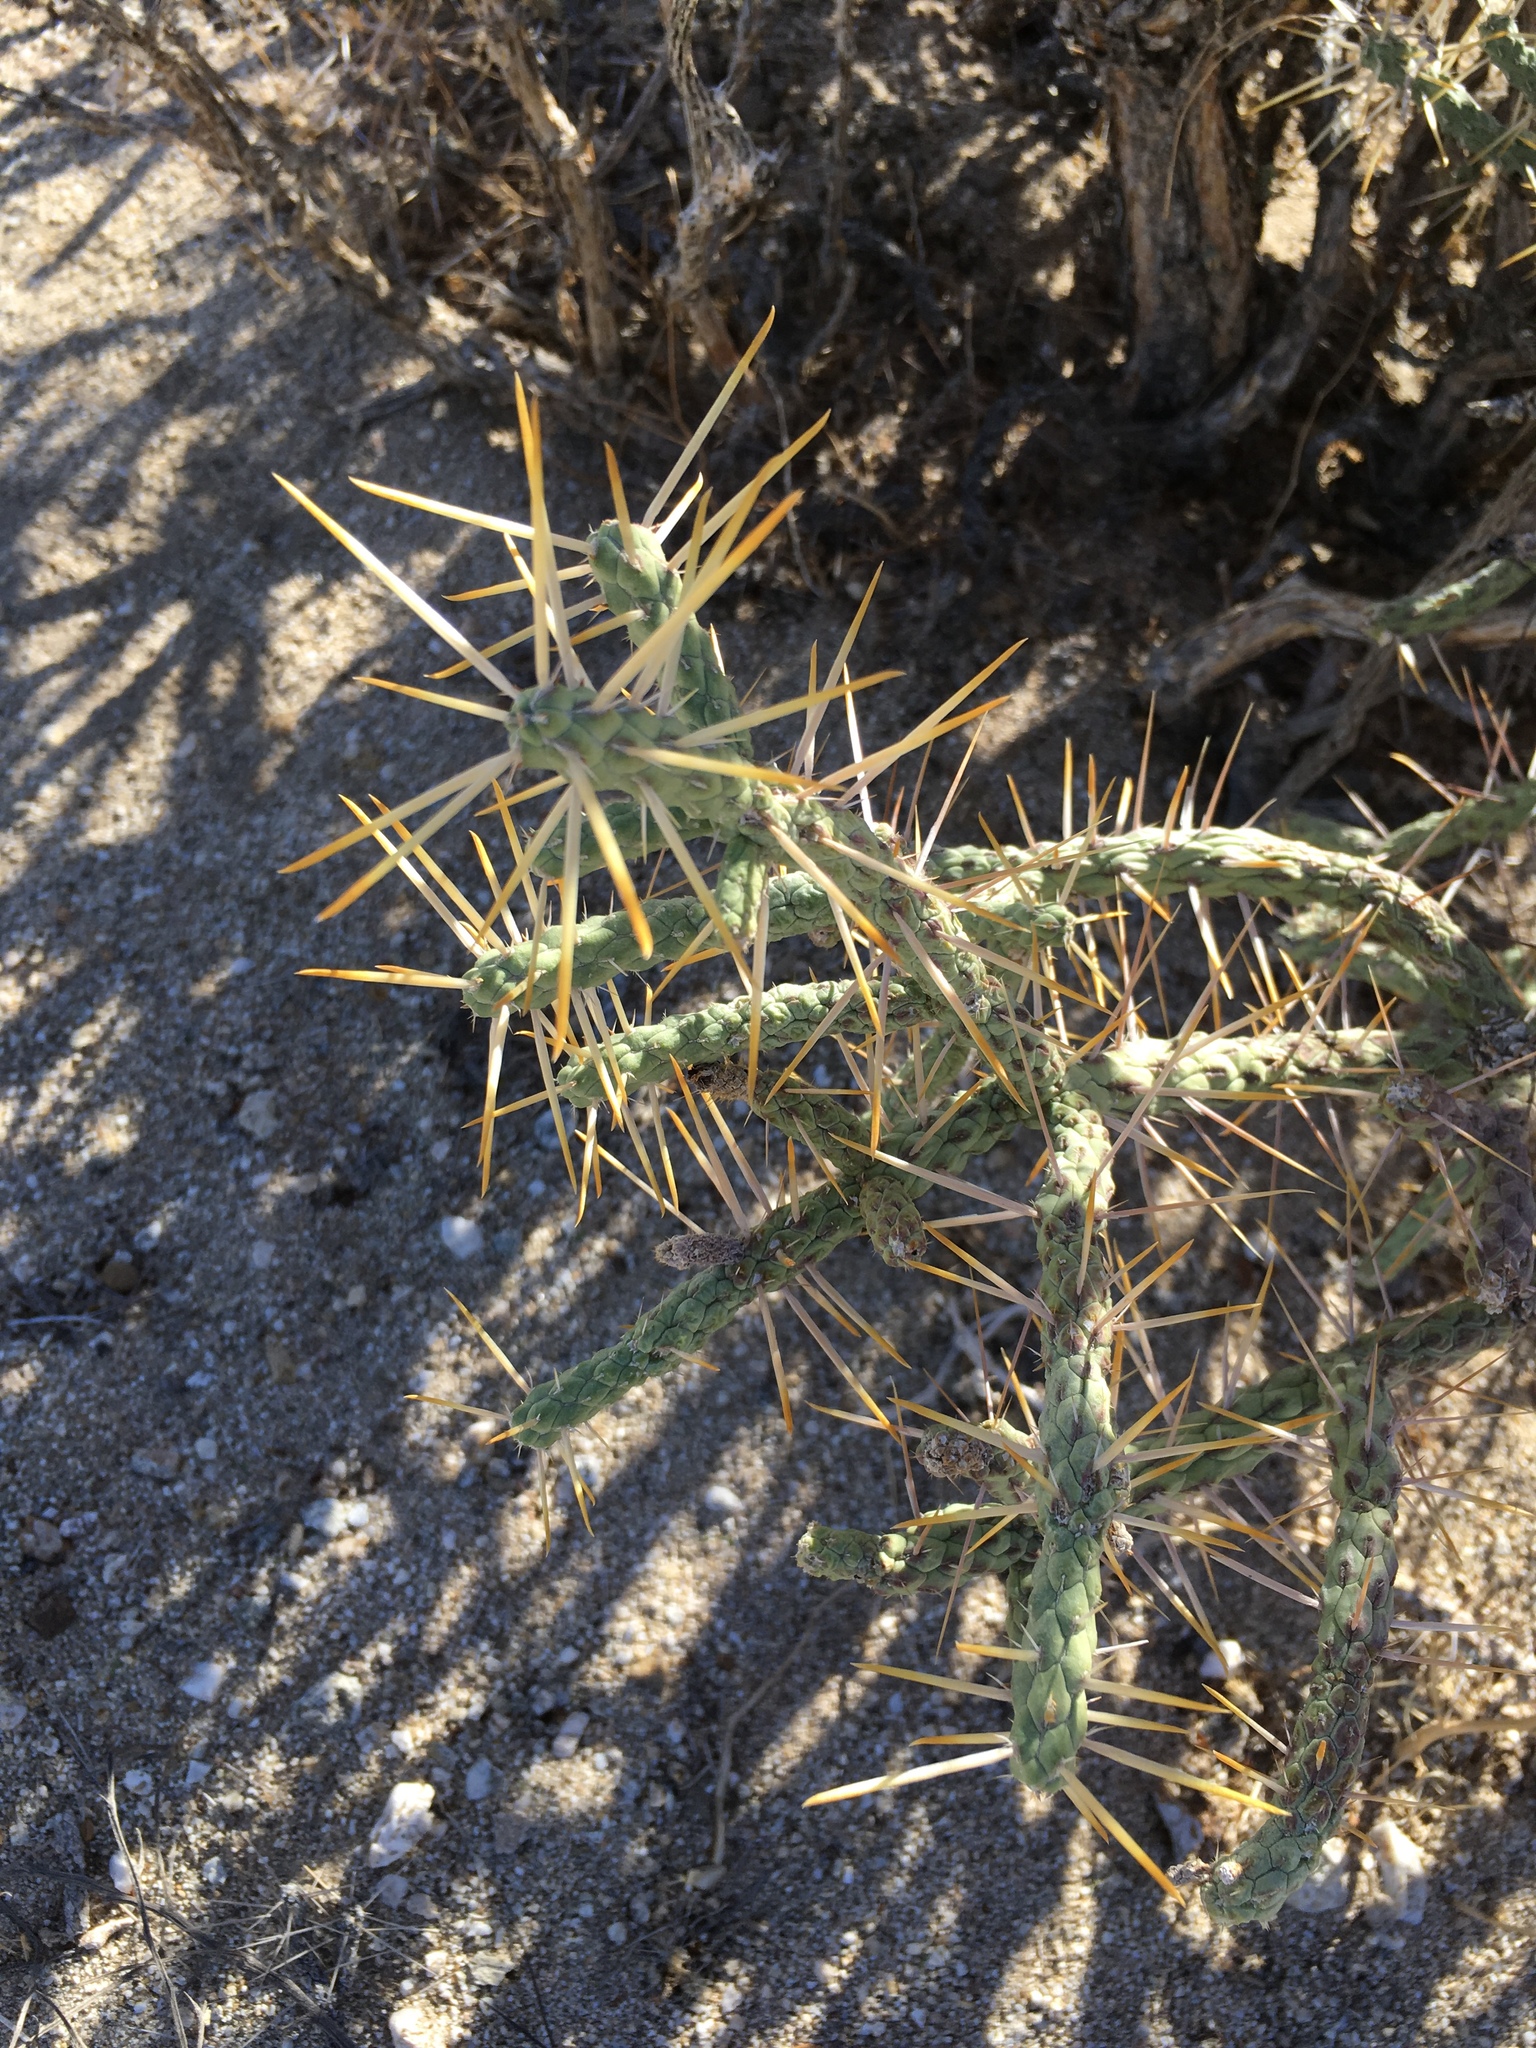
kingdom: Plantae
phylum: Tracheophyta
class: Magnoliopsida
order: Caryophyllales
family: Cactaceae
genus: Cylindropuntia
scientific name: Cylindropuntia ramosissima
